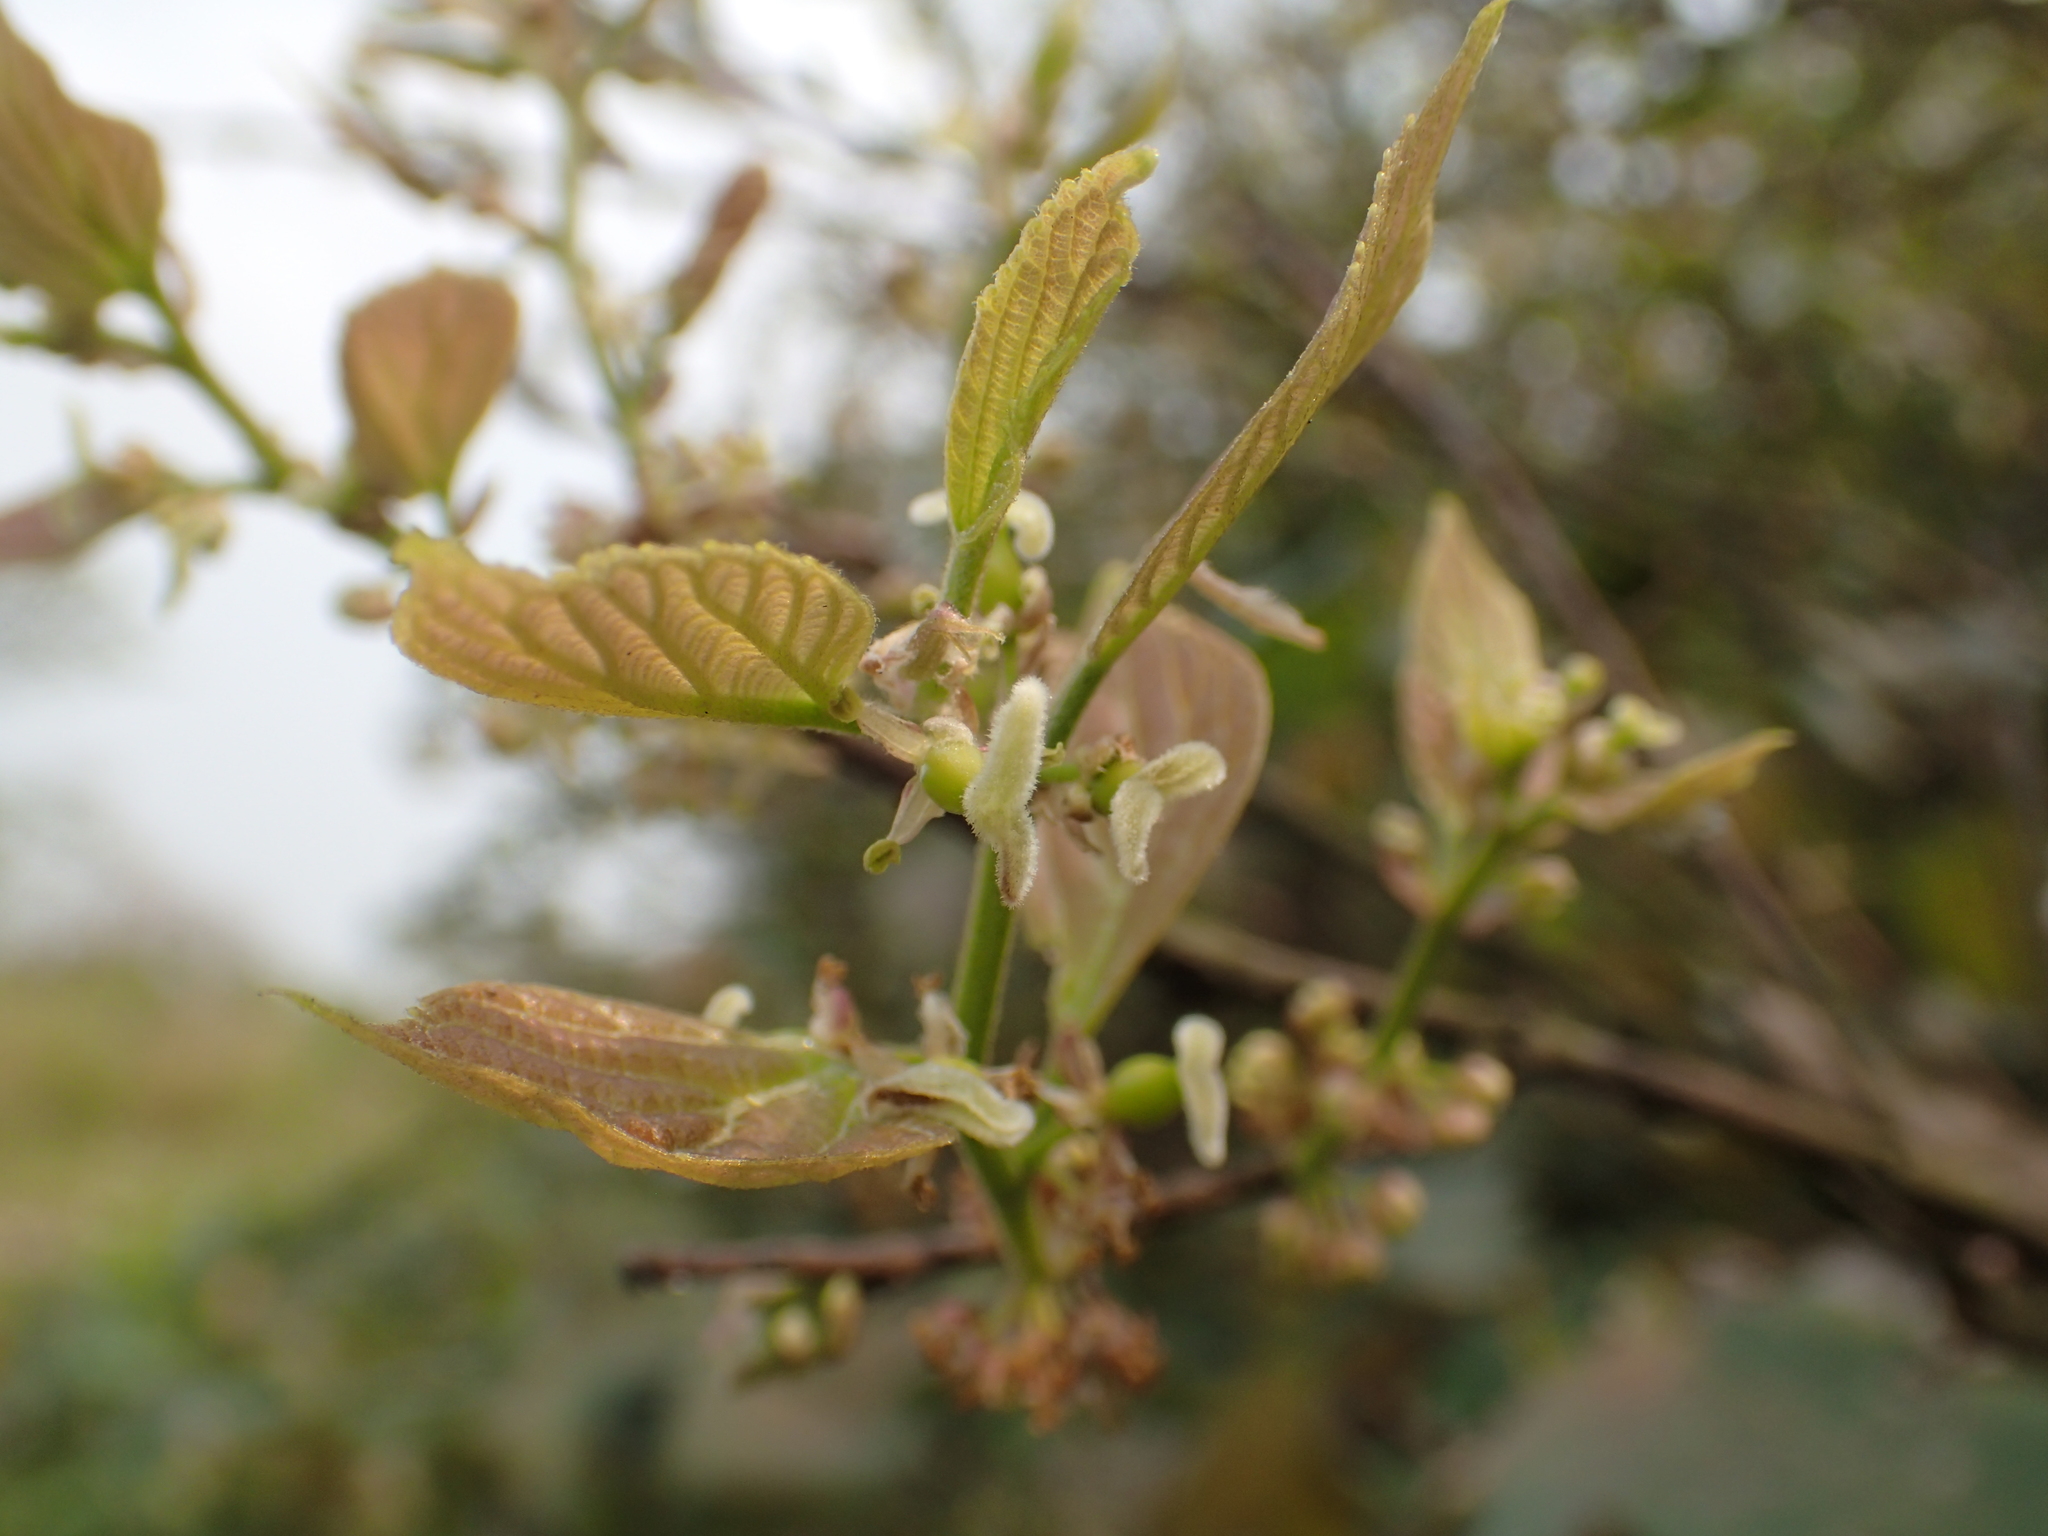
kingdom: Plantae
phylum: Tracheophyta
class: Magnoliopsida
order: Rosales
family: Cannabaceae
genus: Celtis
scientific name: Celtis sinensis
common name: Chinese hackberry
